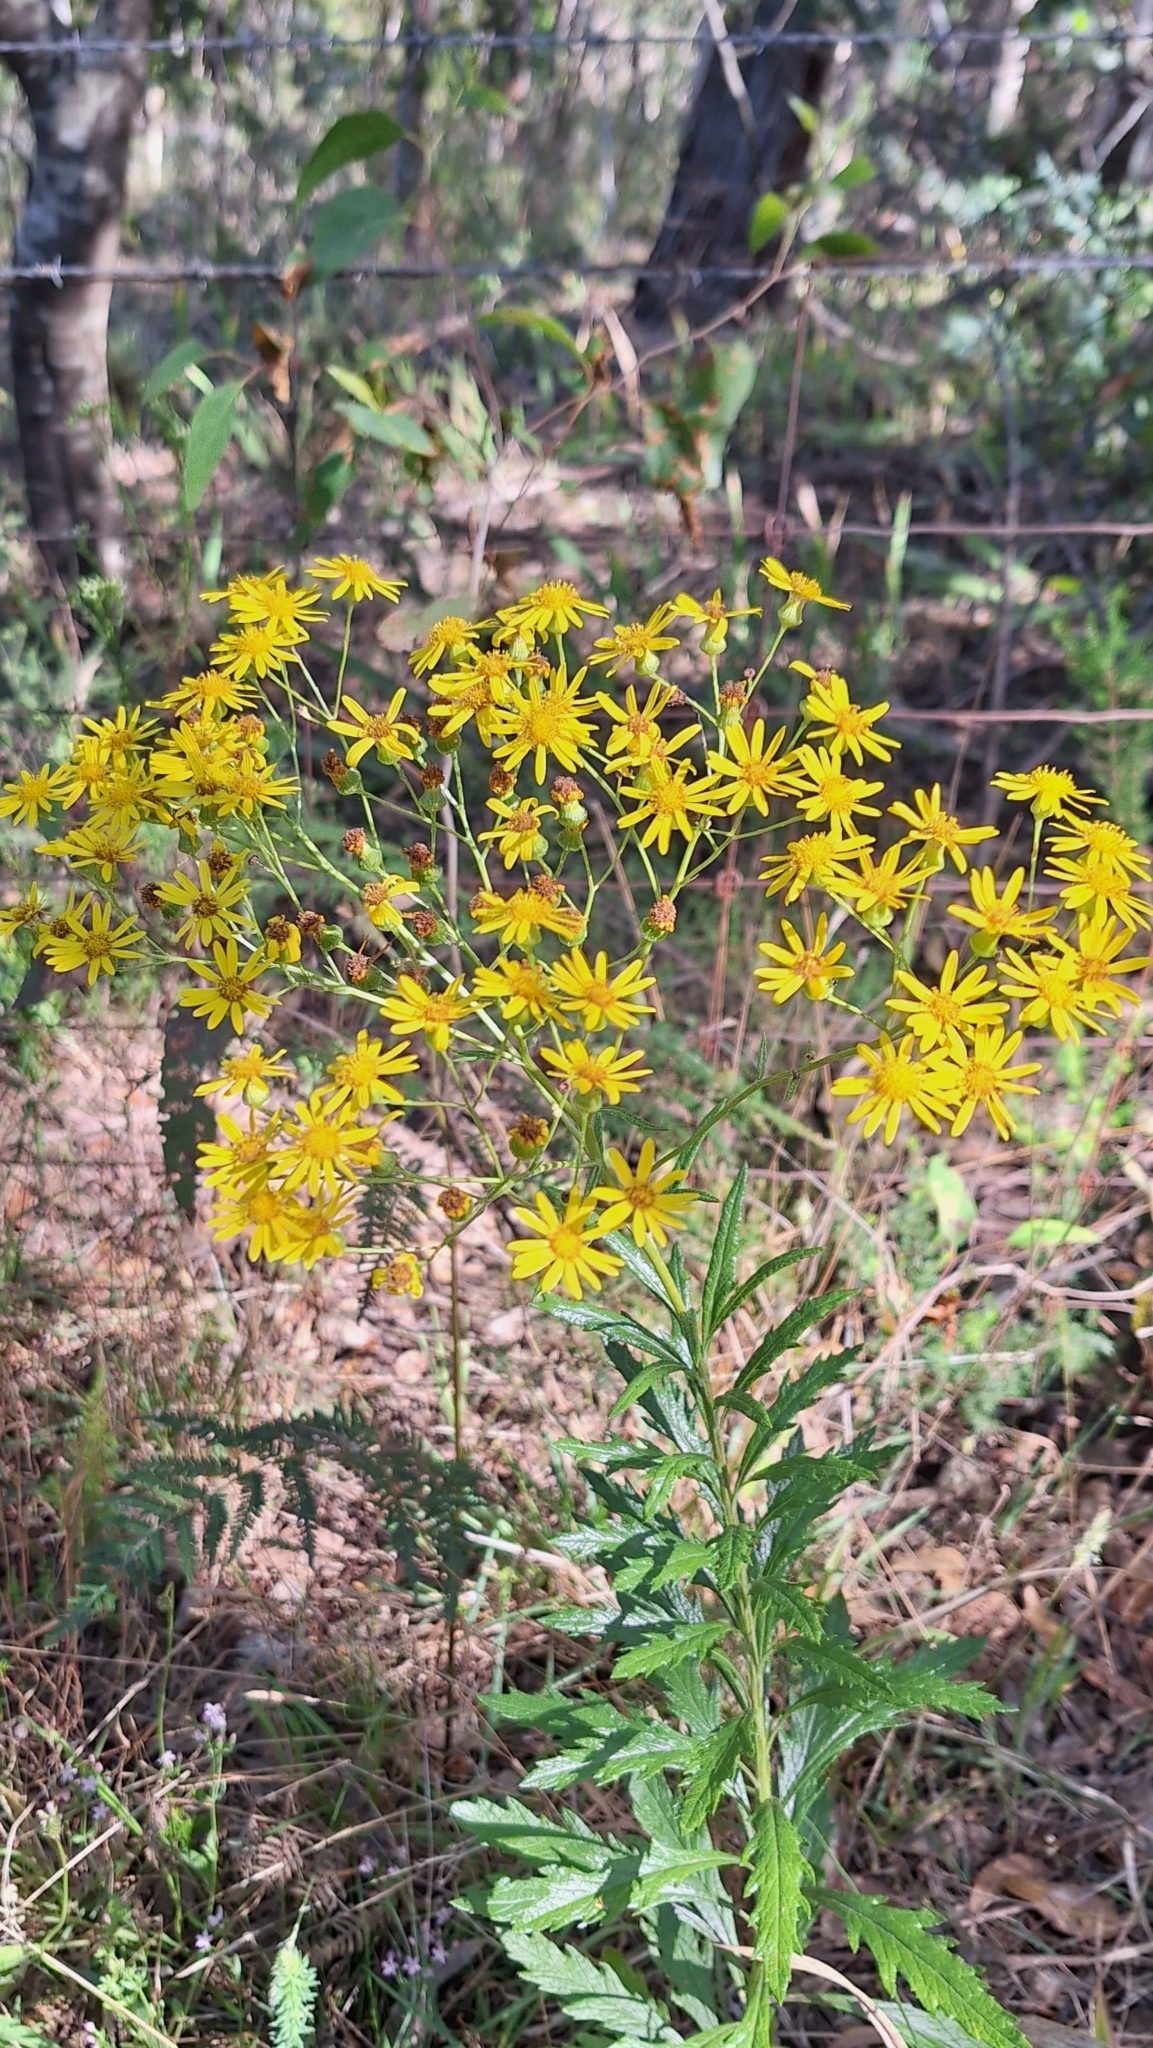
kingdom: Plantae
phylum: Tracheophyta
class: Magnoliopsida
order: Asterales
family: Asteraceae
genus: Senecio
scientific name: Senecio pterophorus
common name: Shoddy ragwort
